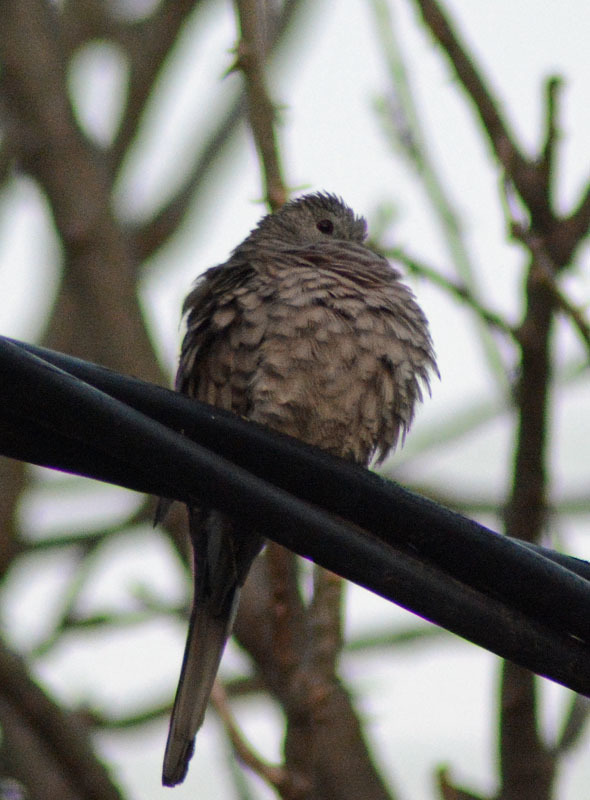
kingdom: Animalia
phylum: Chordata
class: Aves
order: Columbiformes
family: Columbidae
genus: Columbina
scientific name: Columbina inca
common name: Inca dove
